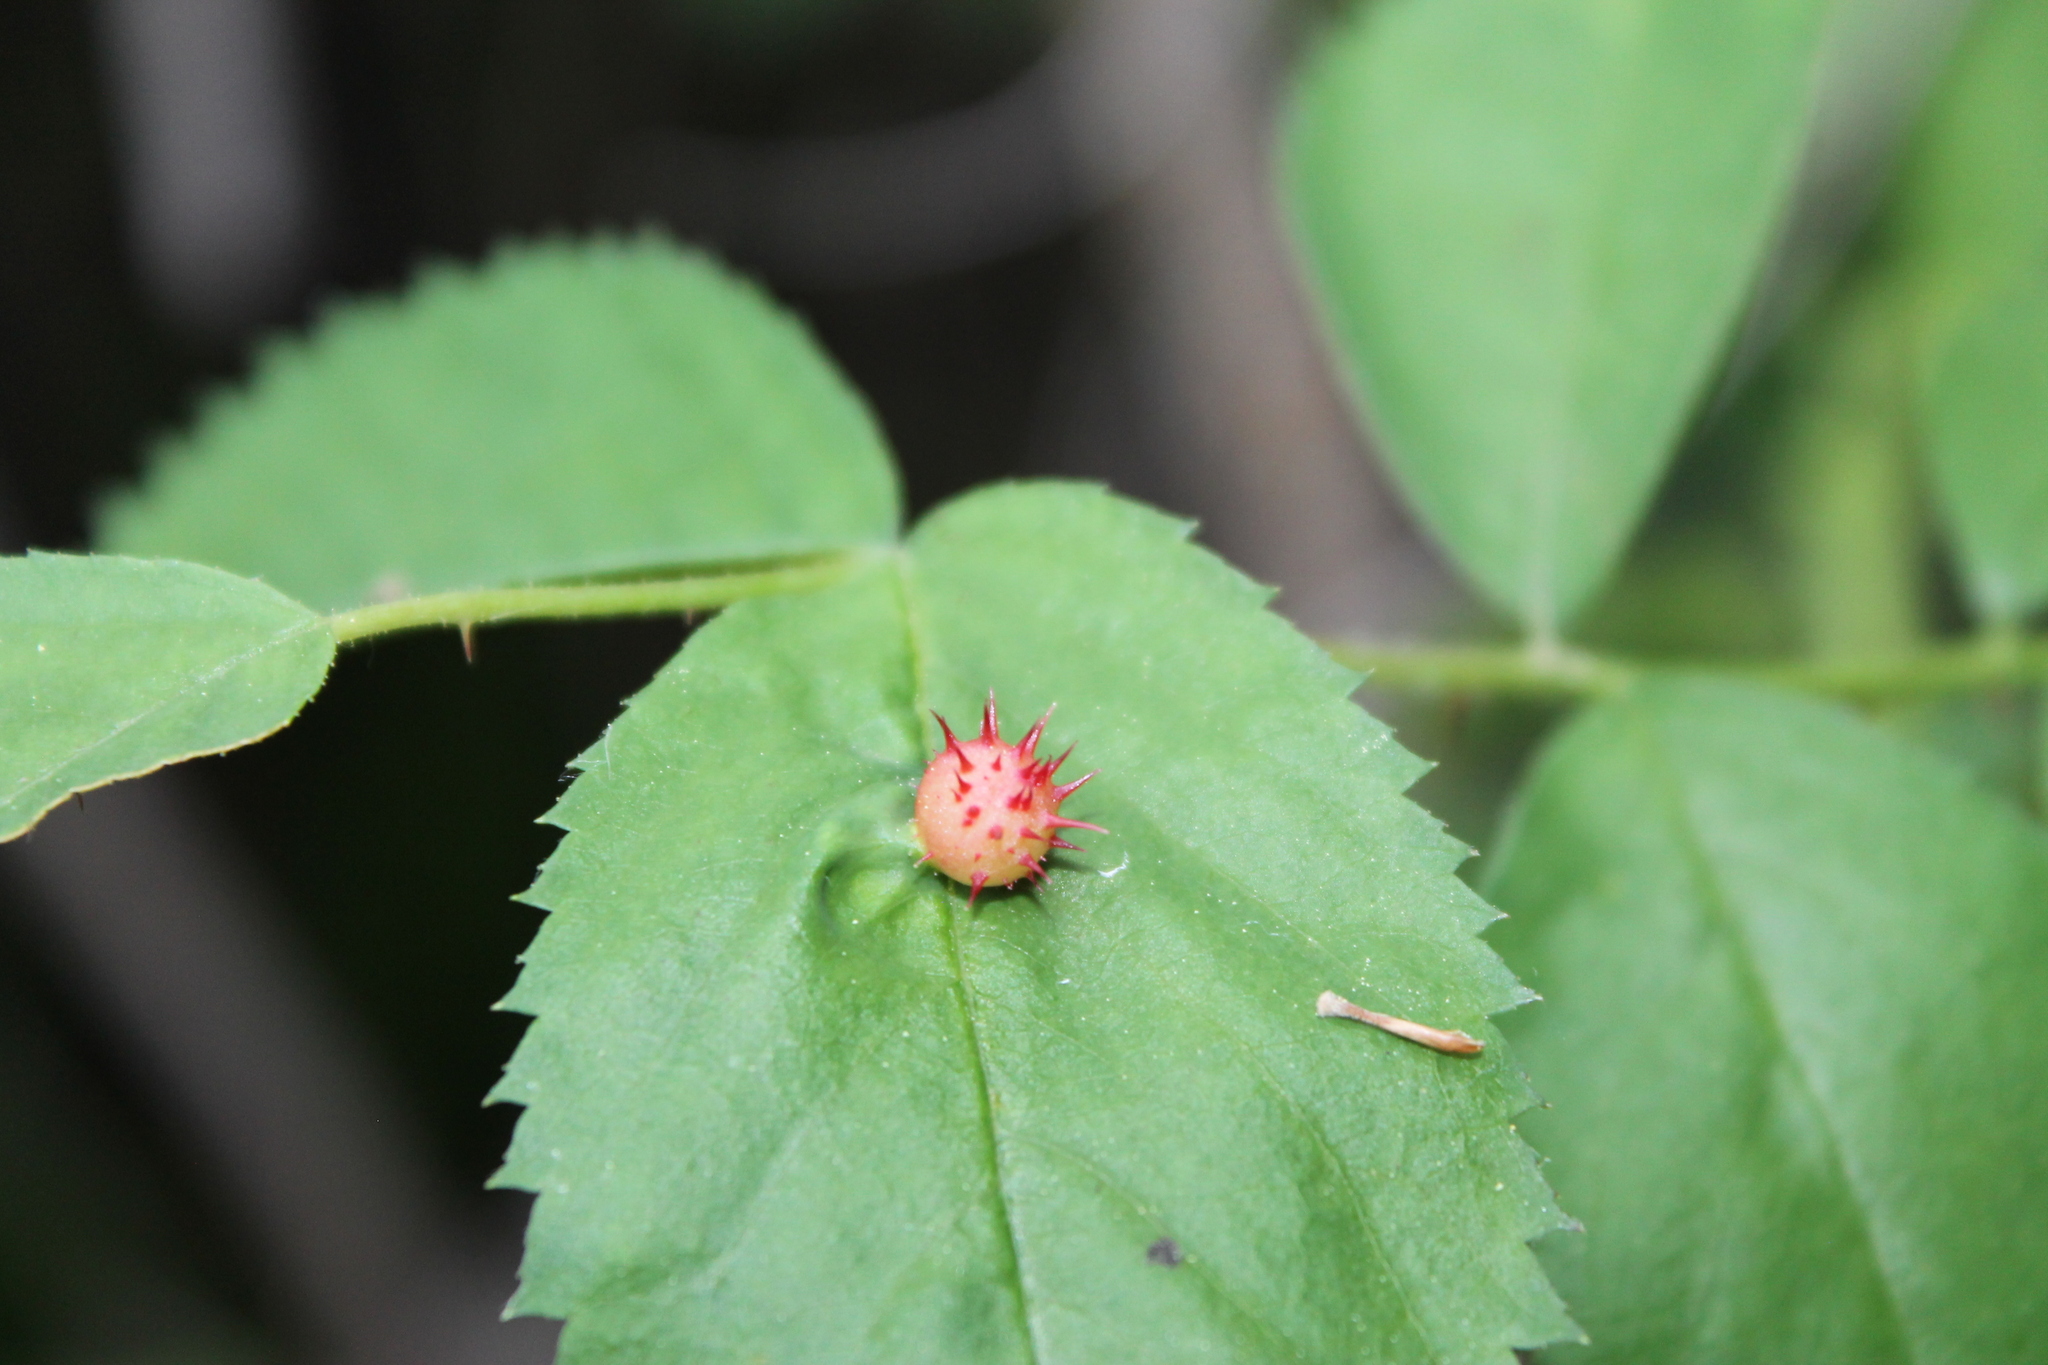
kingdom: Animalia
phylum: Arthropoda
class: Insecta
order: Hymenoptera
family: Cynipidae
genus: Diplolepis
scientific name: Diplolepis polita
